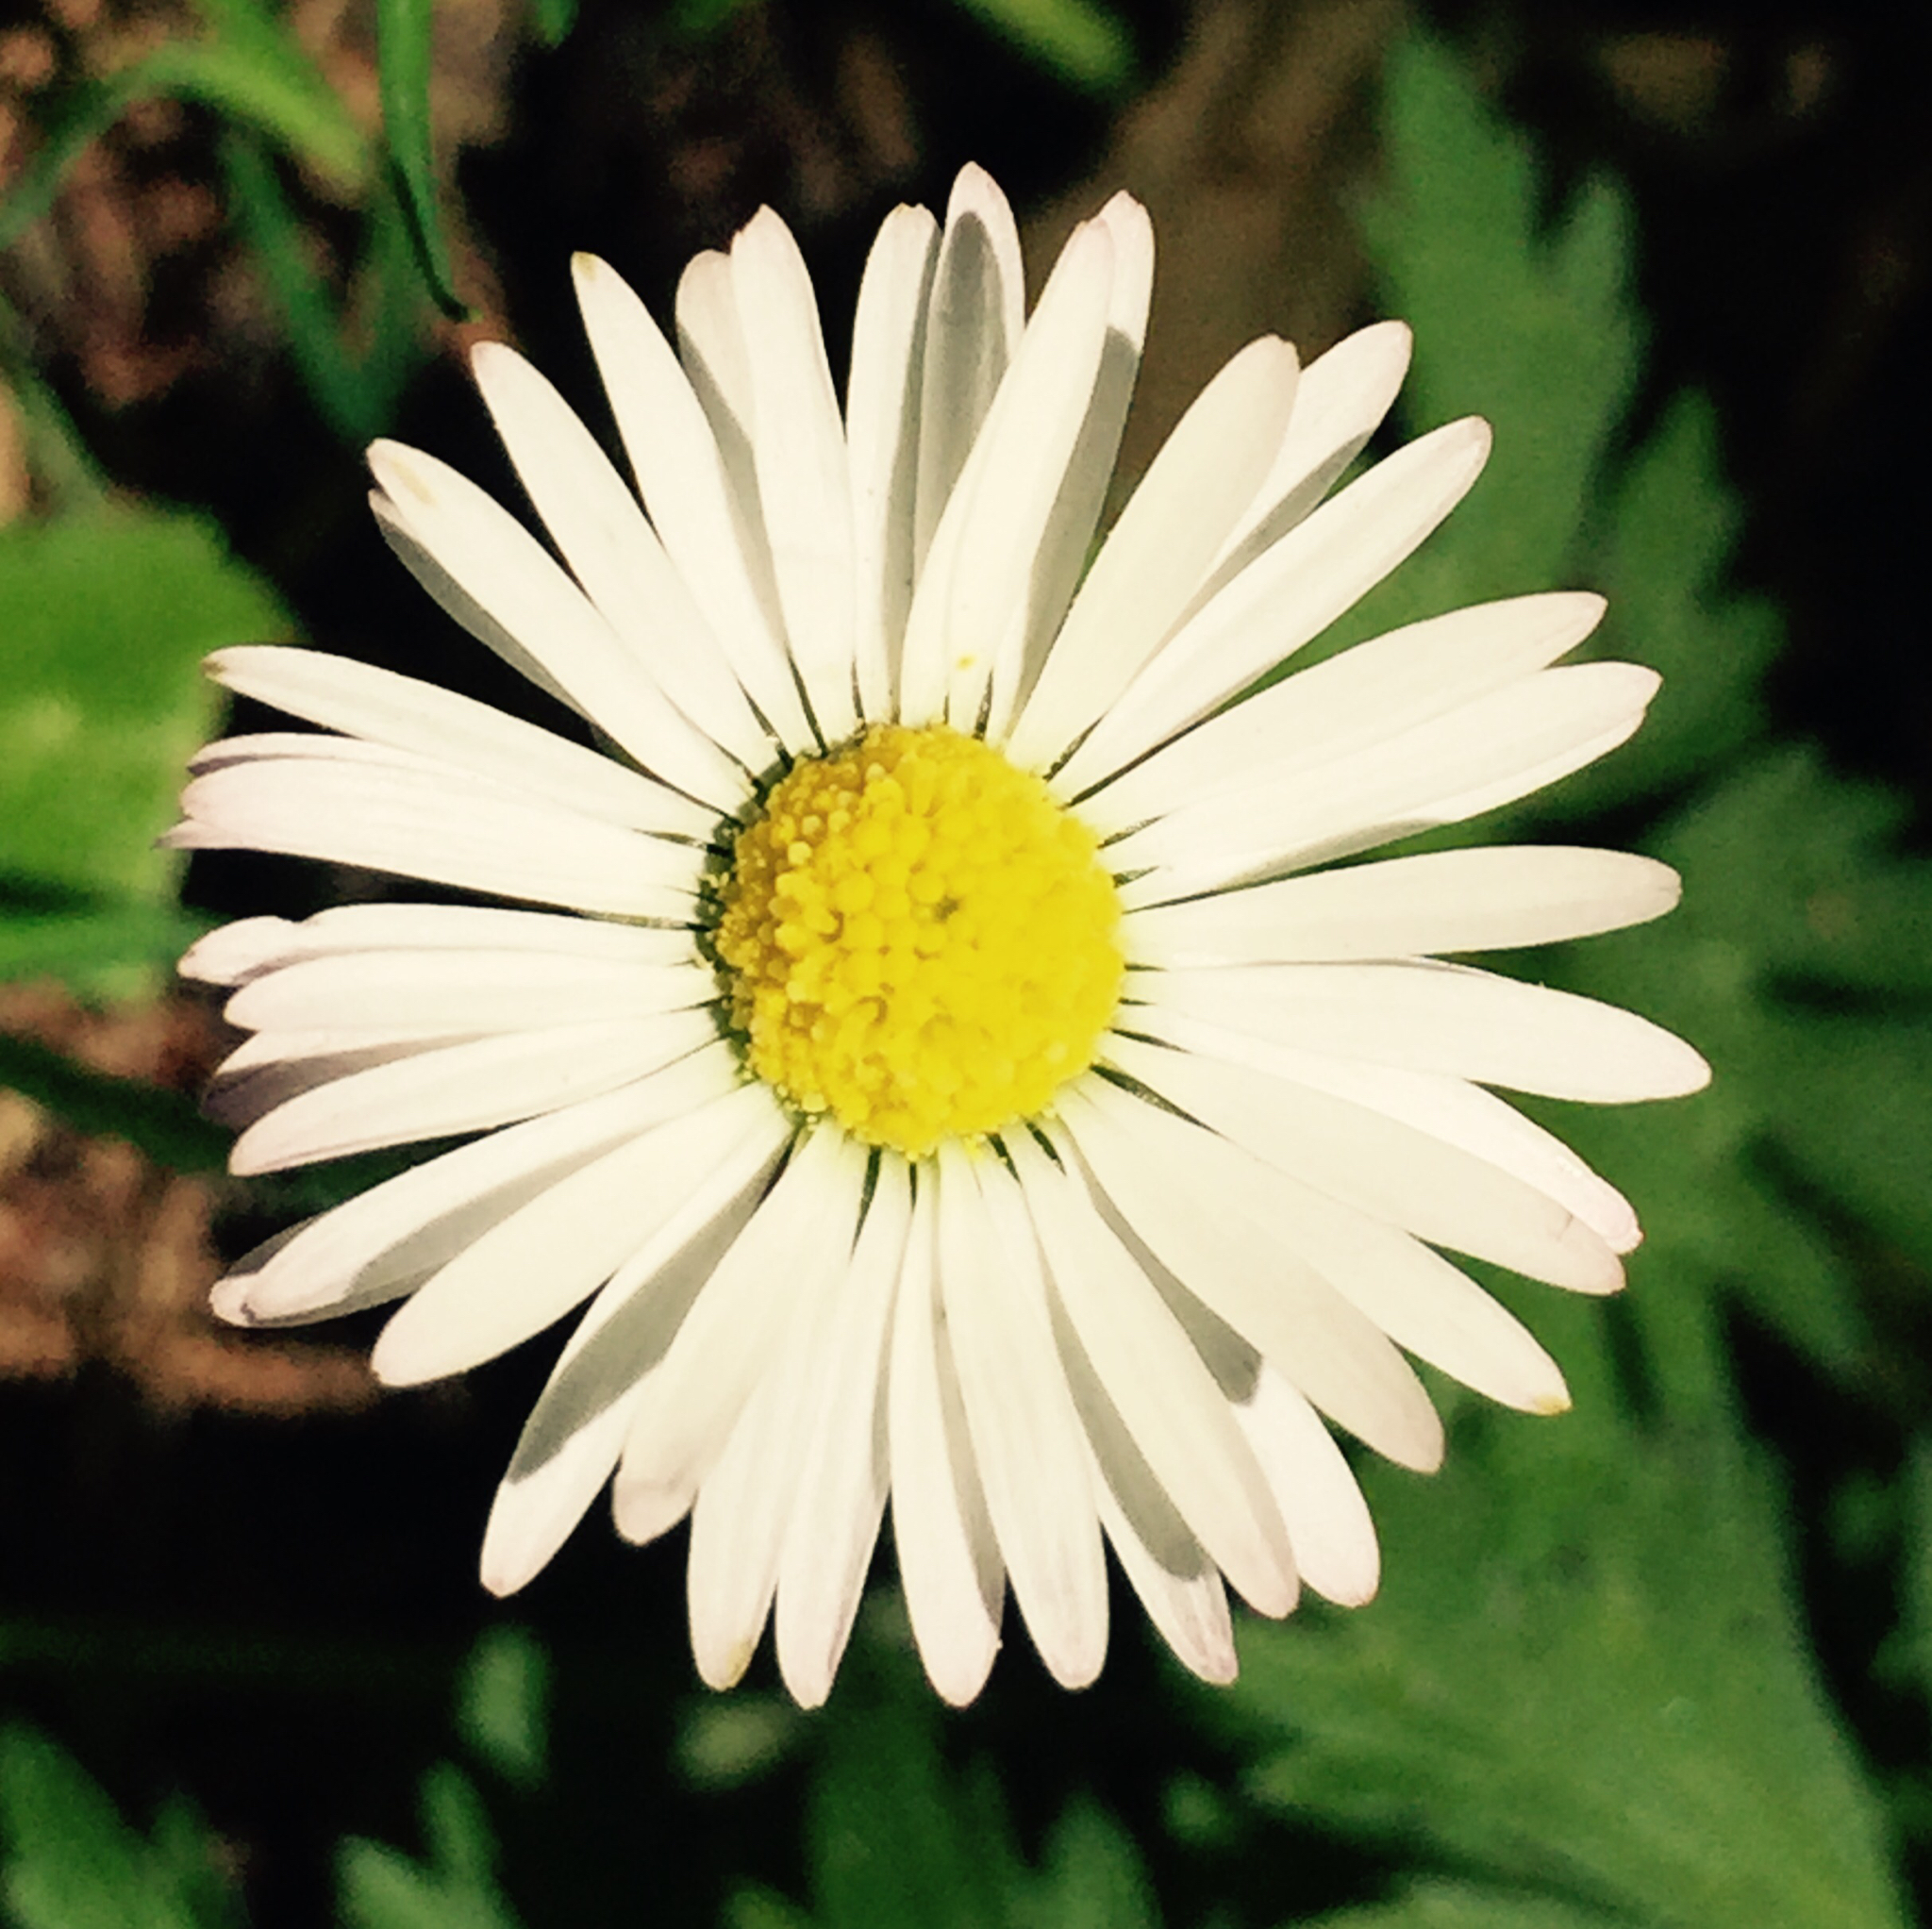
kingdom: Plantae
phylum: Tracheophyta
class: Magnoliopsida
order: Asterales
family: Asteraceae
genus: Bellis
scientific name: Bellis perennis
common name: Lawndaisy
